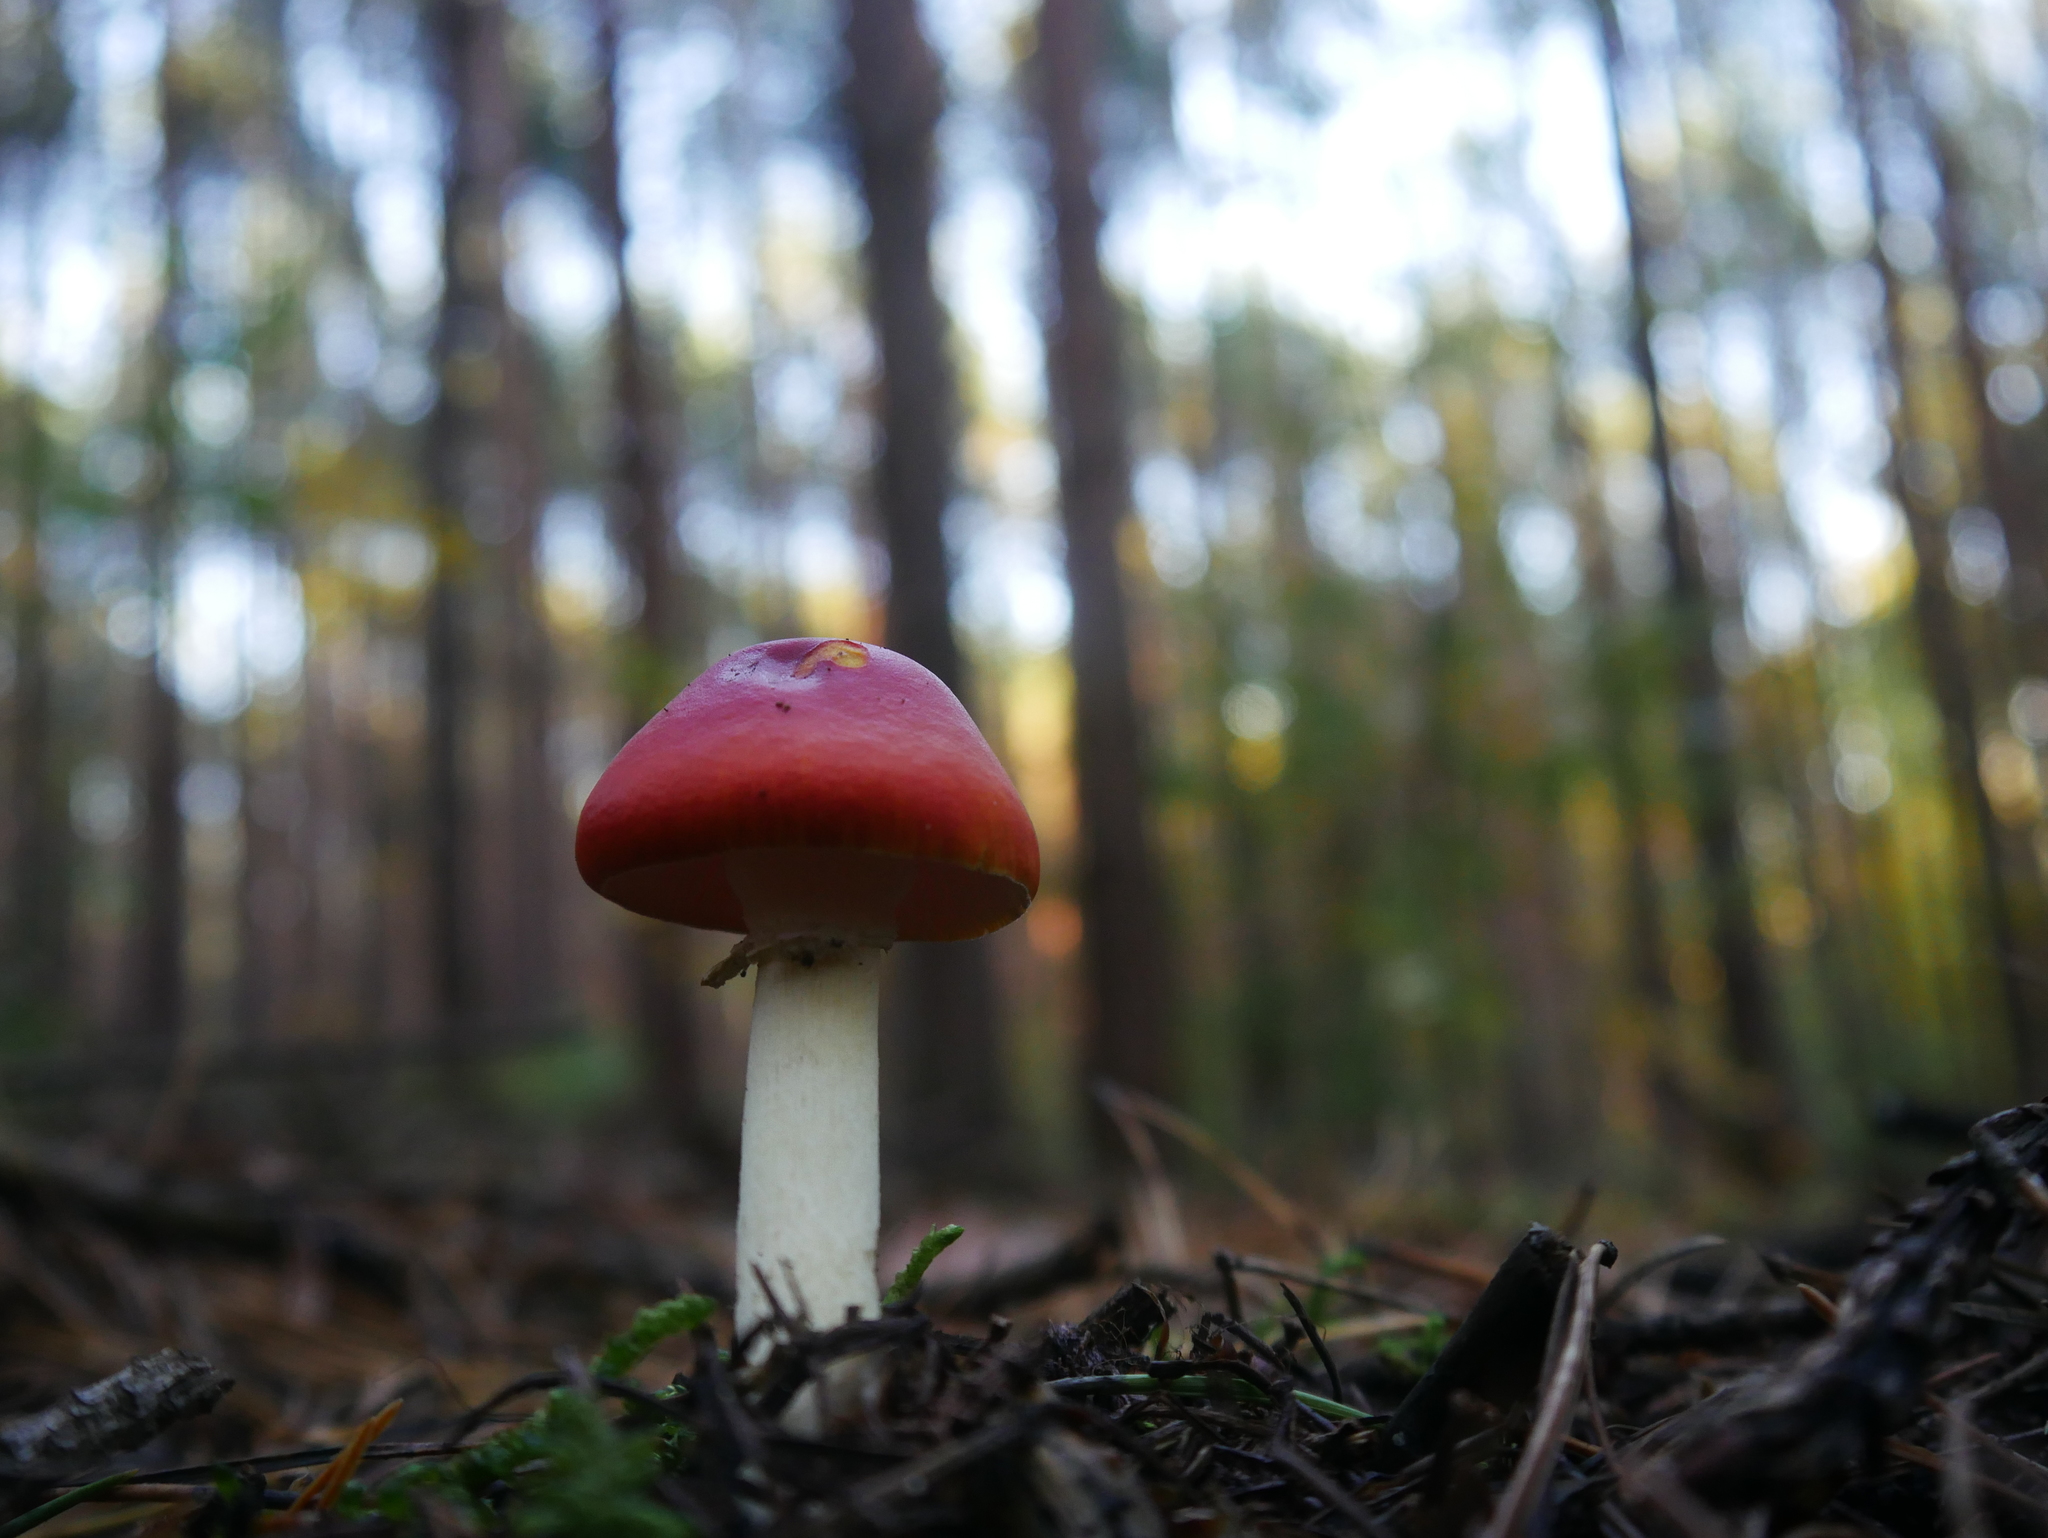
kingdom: Fungi
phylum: Basidiomycota
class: Agaricomycetes
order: Agaricales
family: Amanitaceae
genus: Amanita
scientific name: Amanita muscaria
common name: Fly agaric
